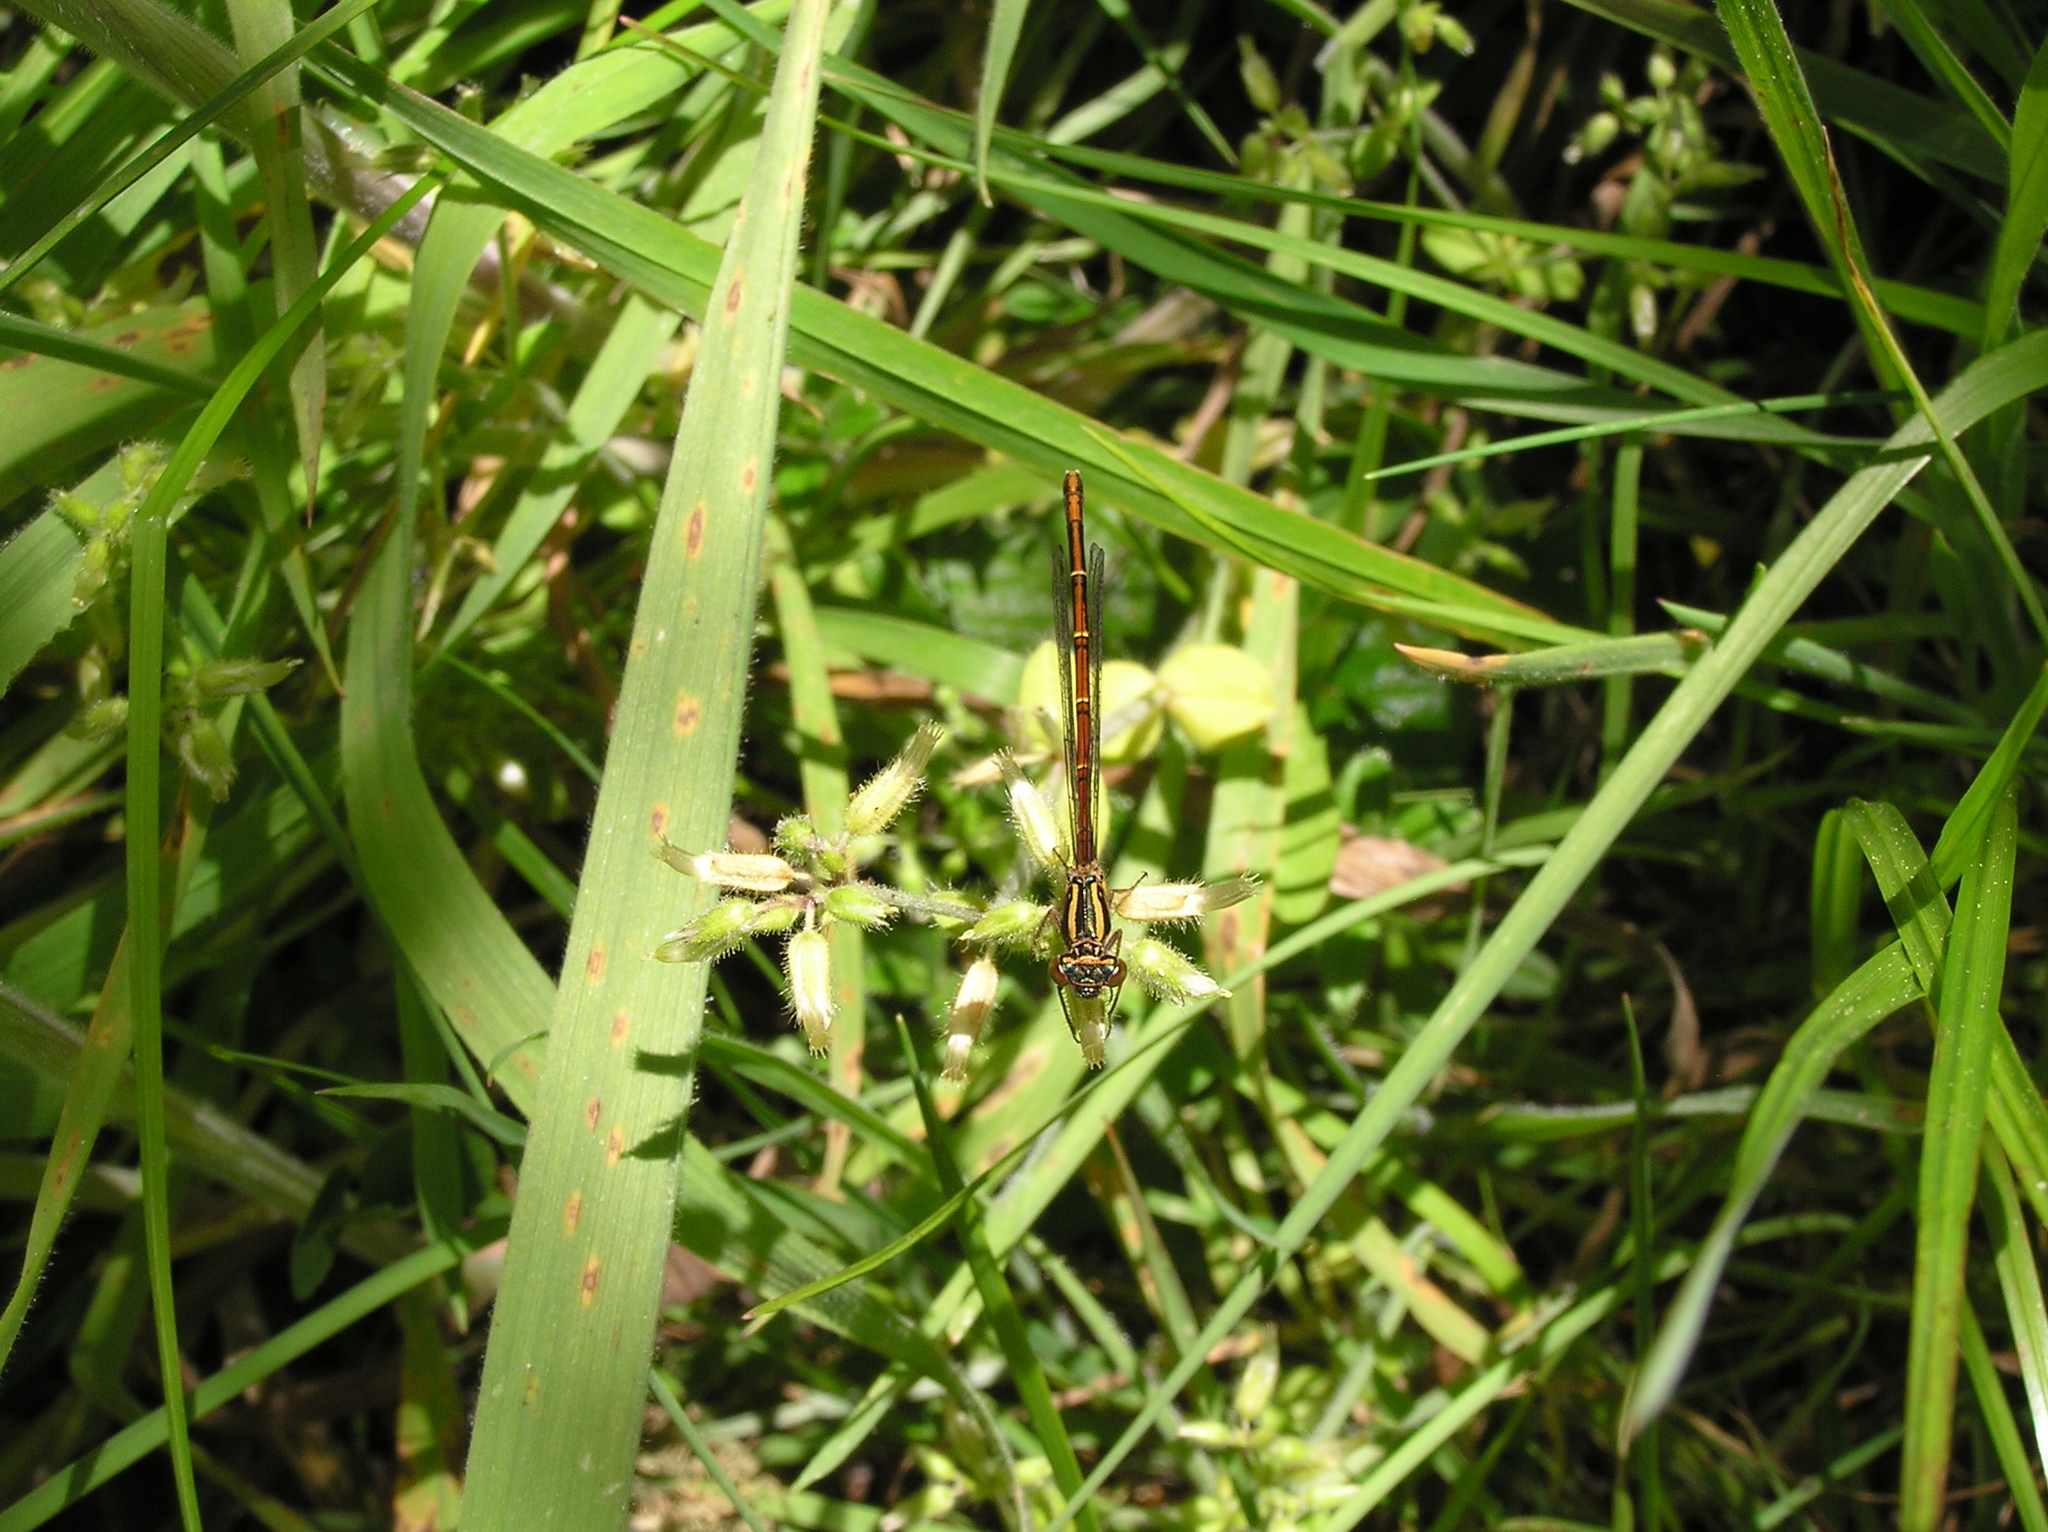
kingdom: Animalia
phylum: Arthropoda
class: Insecta
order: Odonata
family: Coenagrionidae
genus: Xanthocnemis
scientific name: Xanthocnemis zealandica
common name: Common redcoat damselfly
